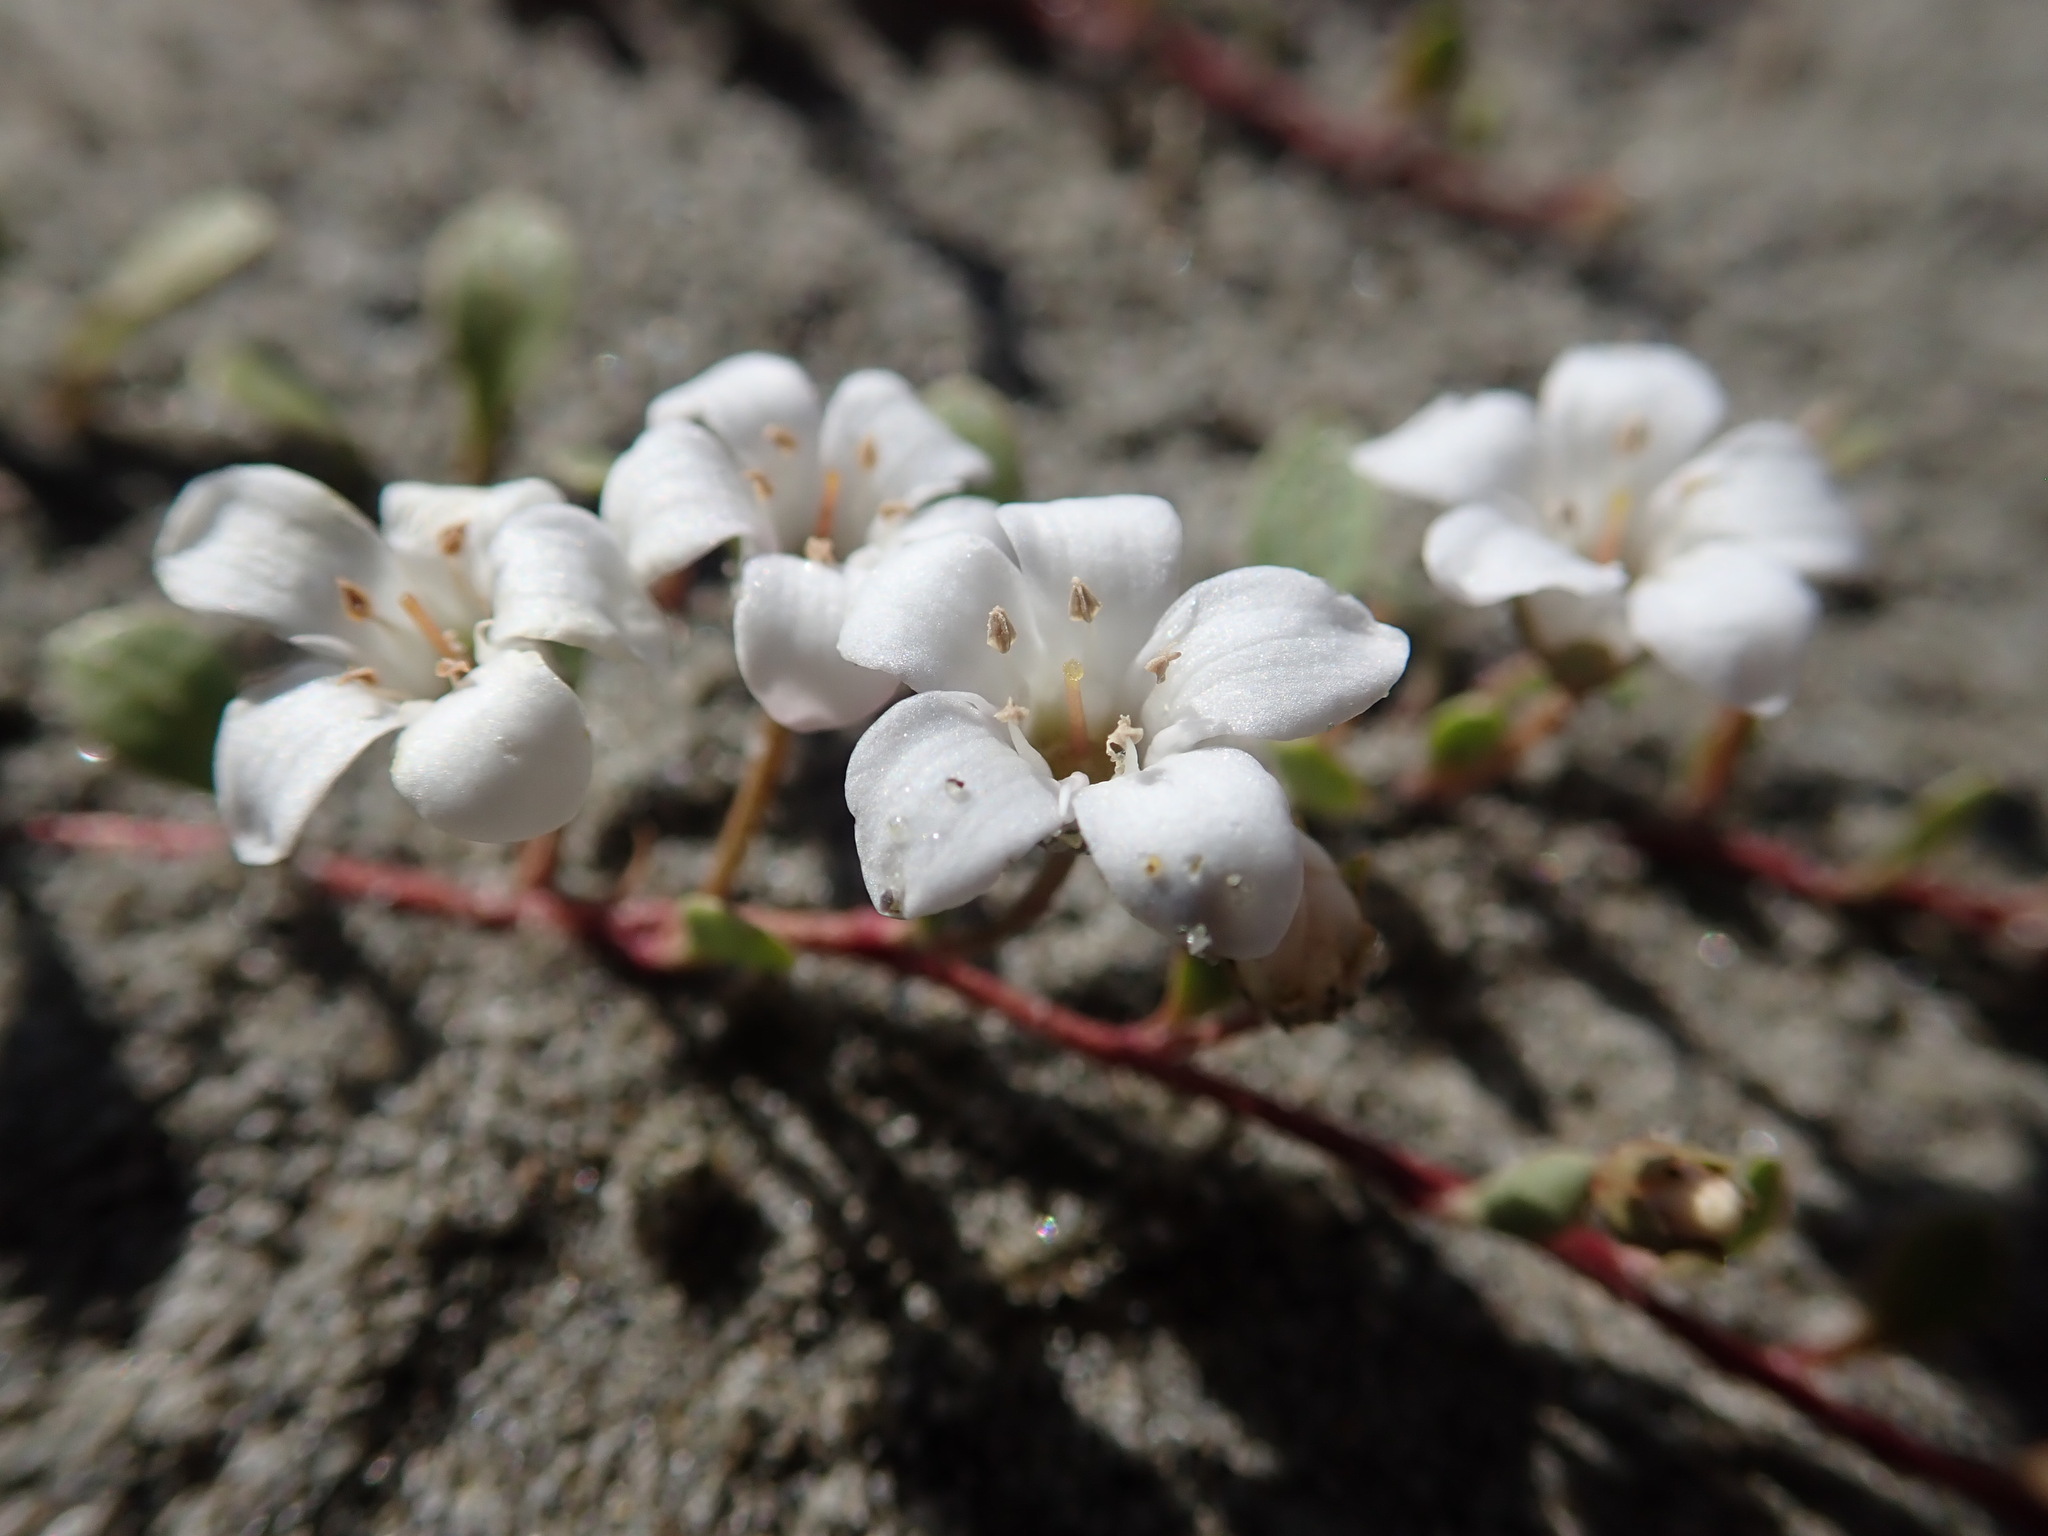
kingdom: Plantae
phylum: Tracheophyta
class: Magnoliopsida
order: Ericales
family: Primulaceae
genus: Samolus
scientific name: Samolus repens
